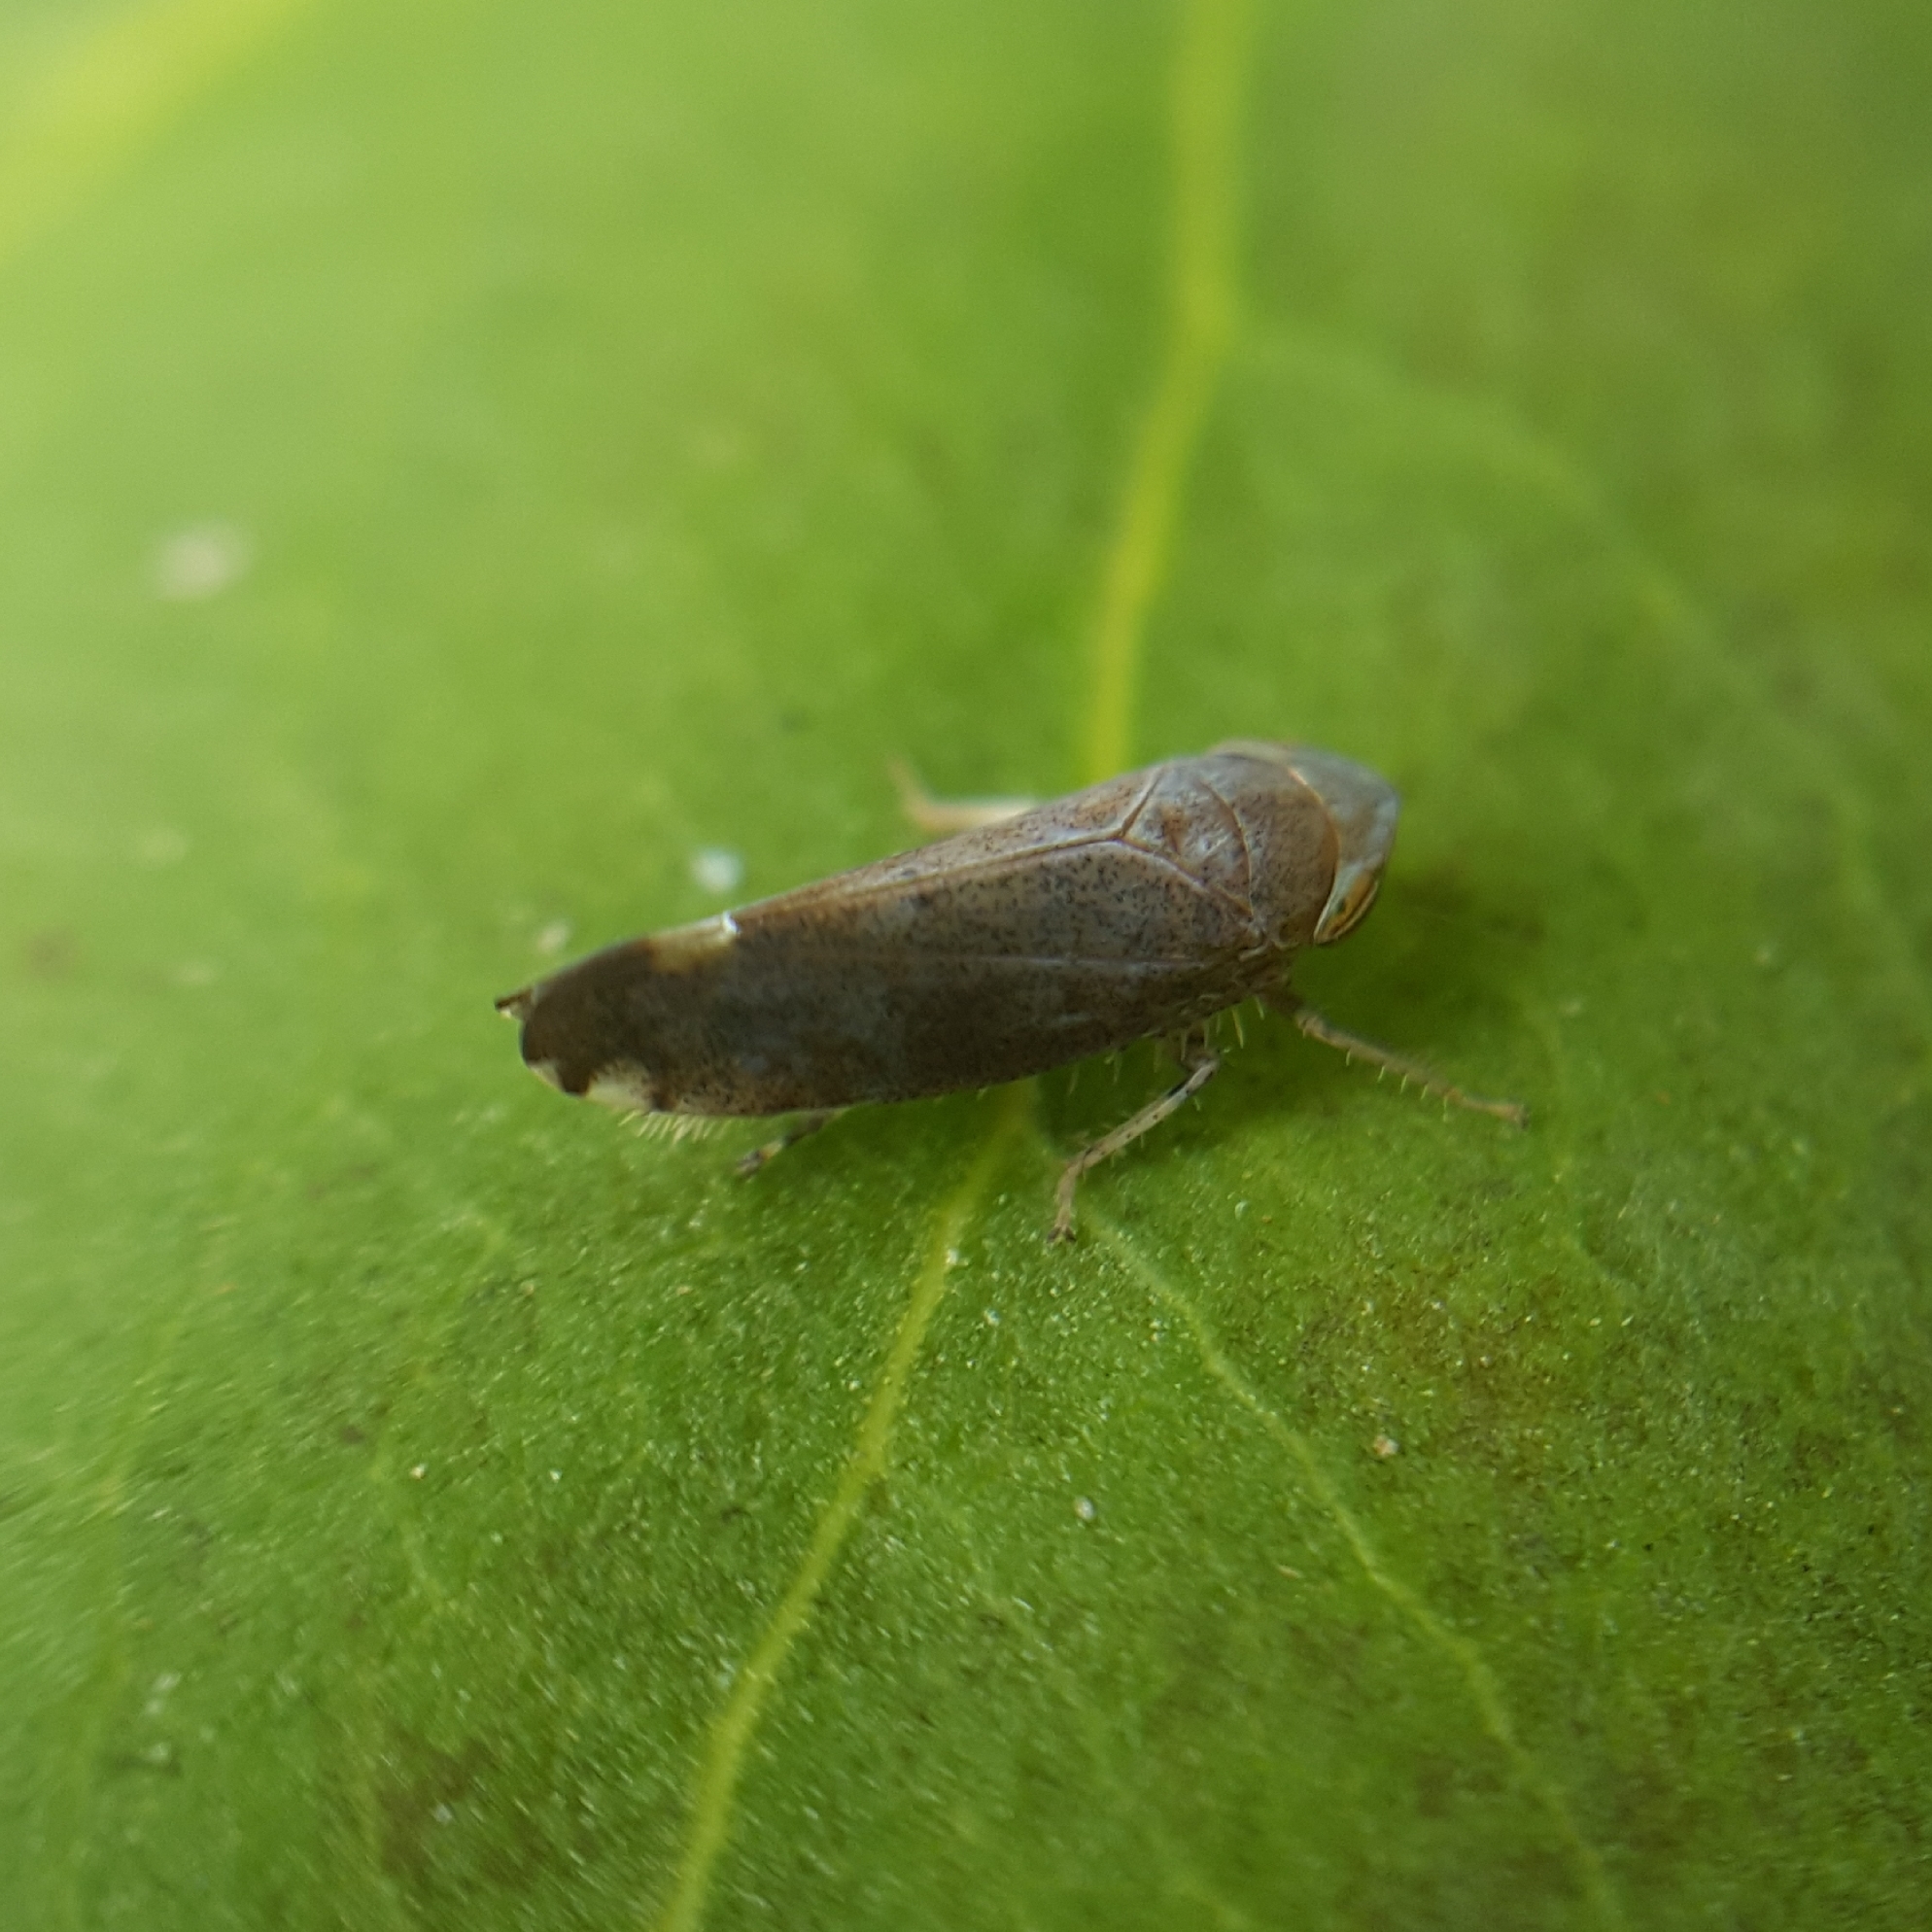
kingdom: Animalia
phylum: Arthropoda
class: Insecta
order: Hemiptera
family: Cicadellidae
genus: Fieberiella
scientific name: Fieberiella florii
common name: Flor’s leafhopper
